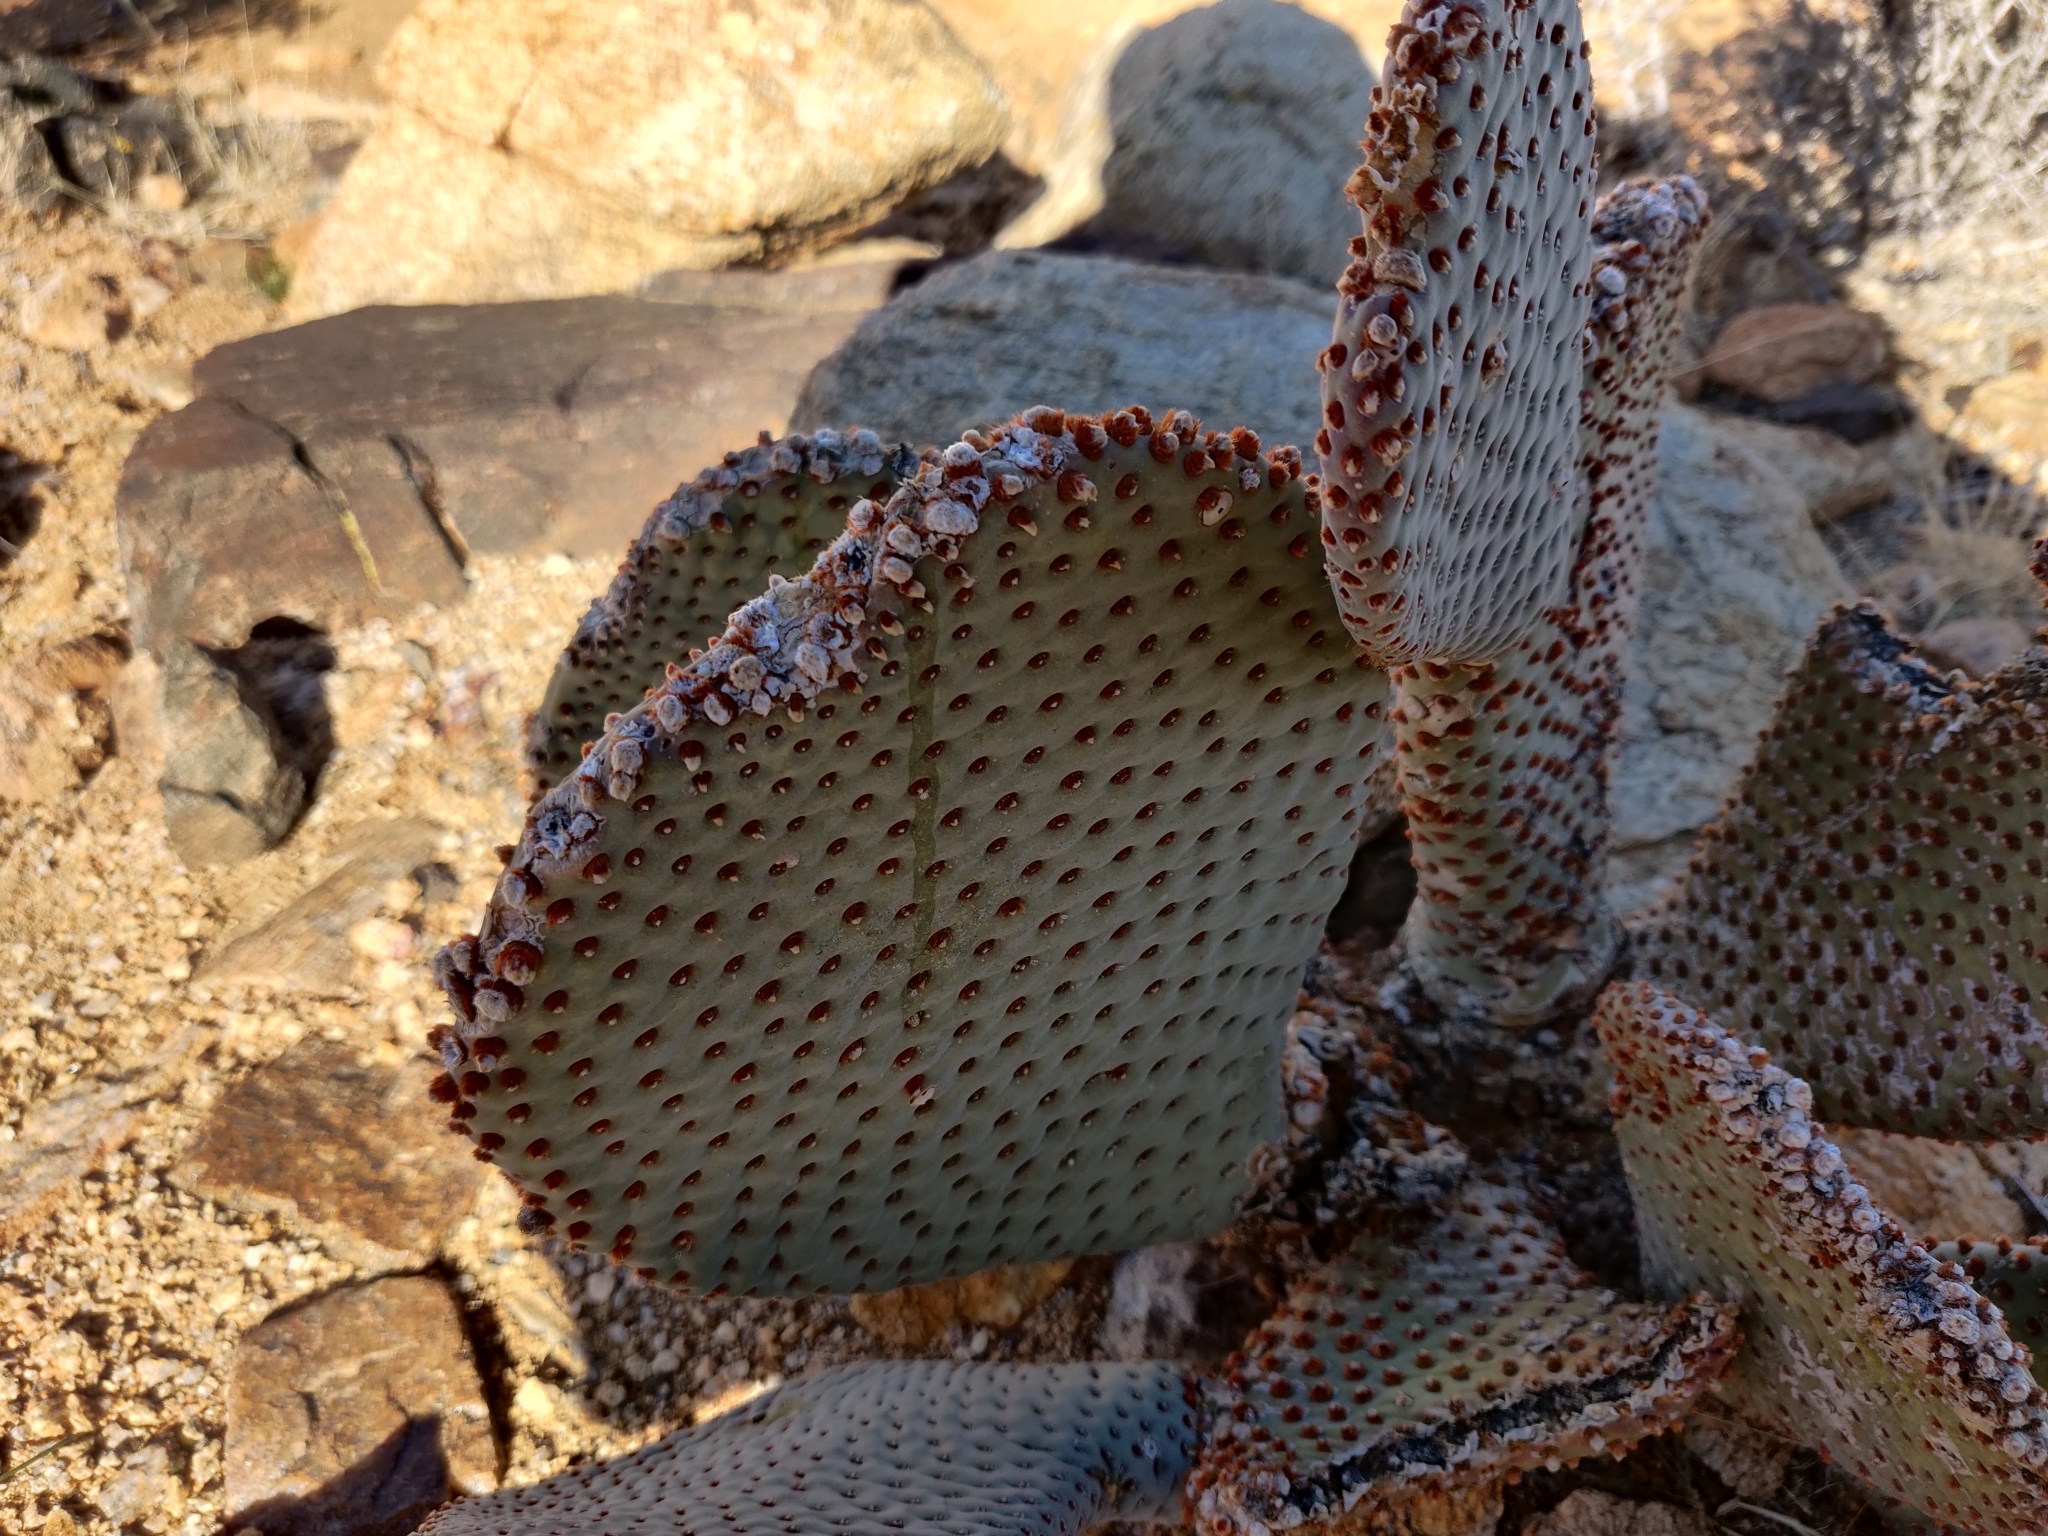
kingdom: Plantae
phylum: Tracheophyta
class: Magnoliopsida
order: Caryophyllales
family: Cactaceae
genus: Opuntia
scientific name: Opuntia basilaris
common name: Beavertail prickly-pear
